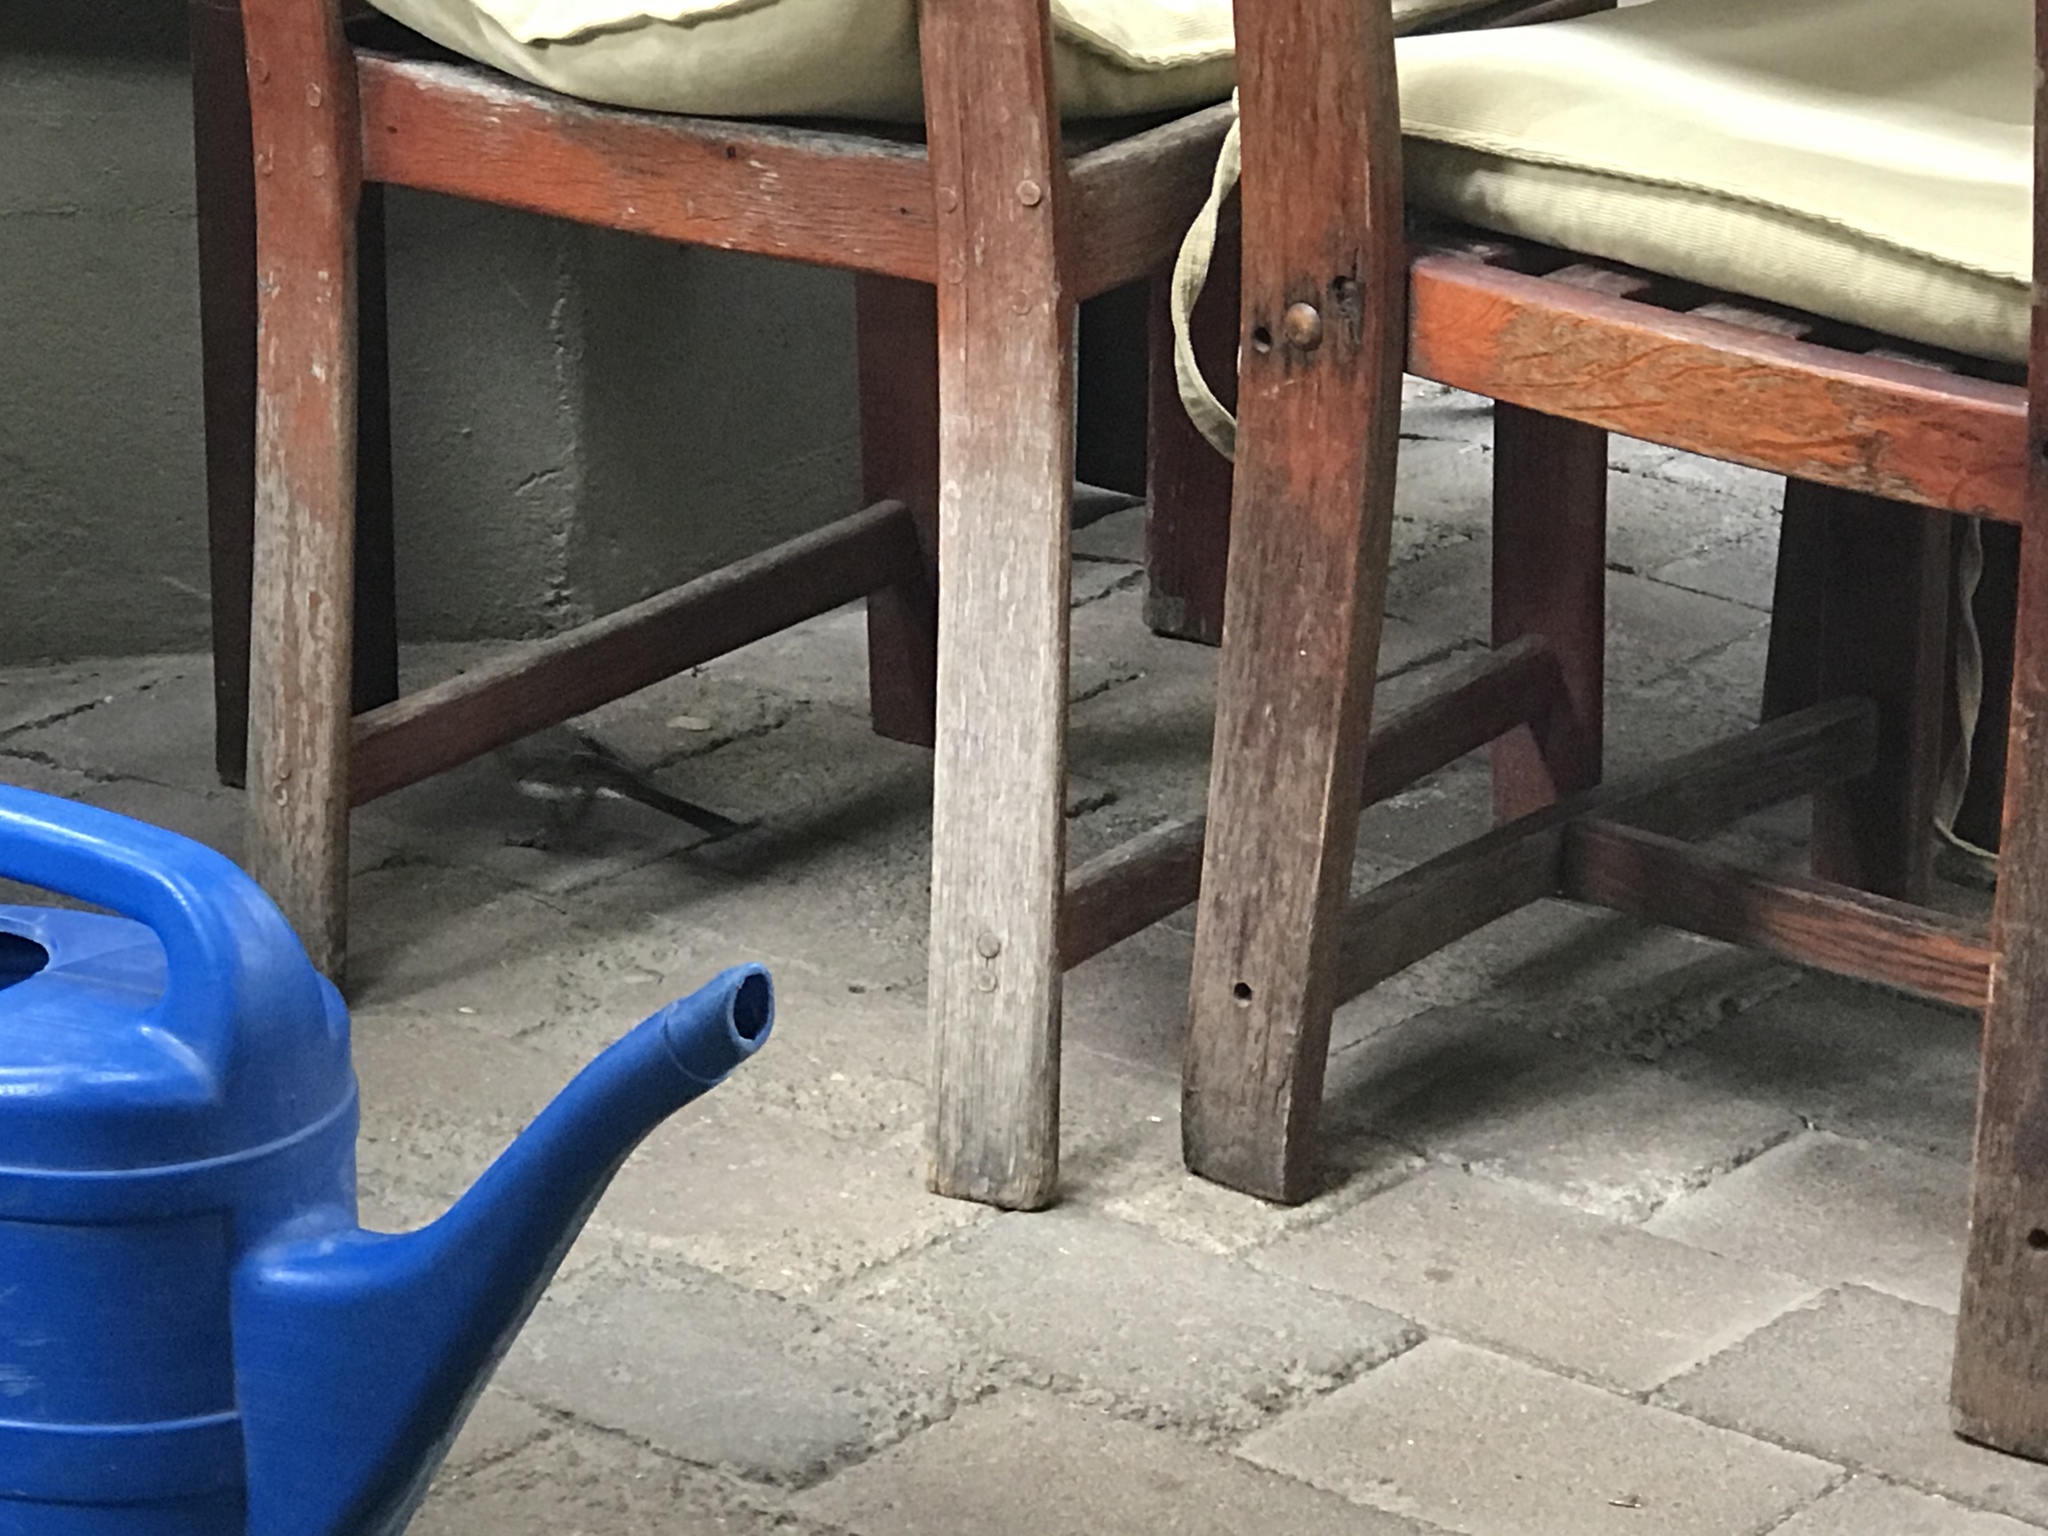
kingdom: Animalia
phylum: Chordata
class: Aves
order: Passeriformes
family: Motacillidae
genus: Motacilla
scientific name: Motacilla capensis
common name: Cape wagtail
